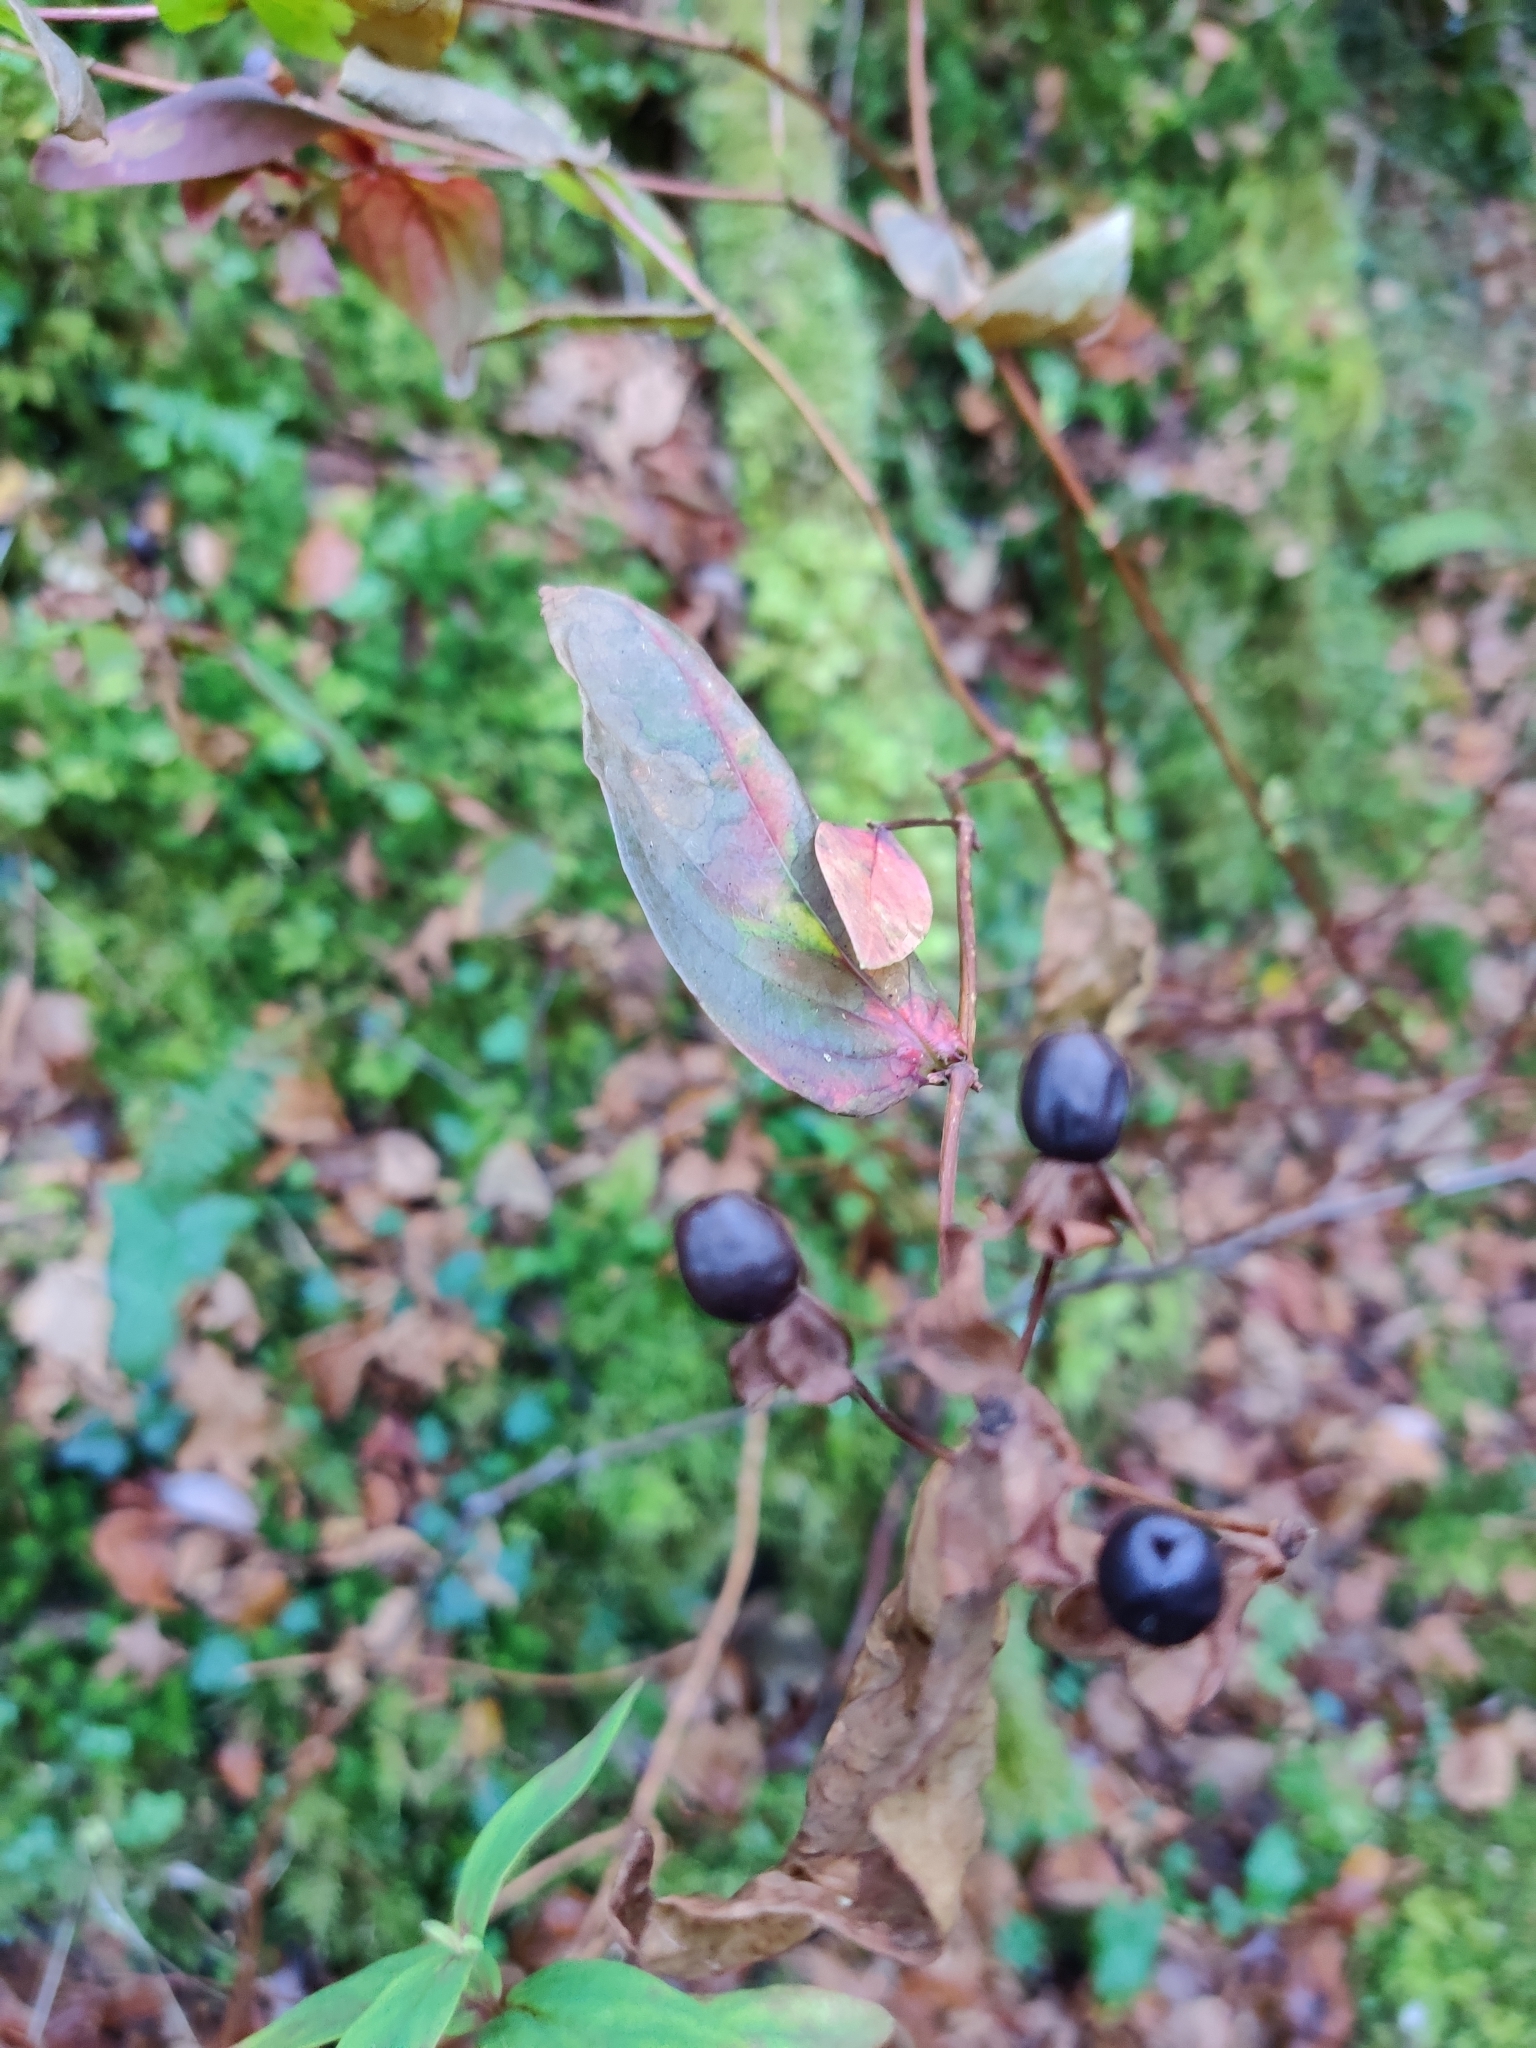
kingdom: Plantae
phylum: Tracheophyta
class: Magnoliopsida
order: Malpighiales
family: Hypericaceae
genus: Hypericum
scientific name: Hypericum androsaemum
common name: Sweet-amber
